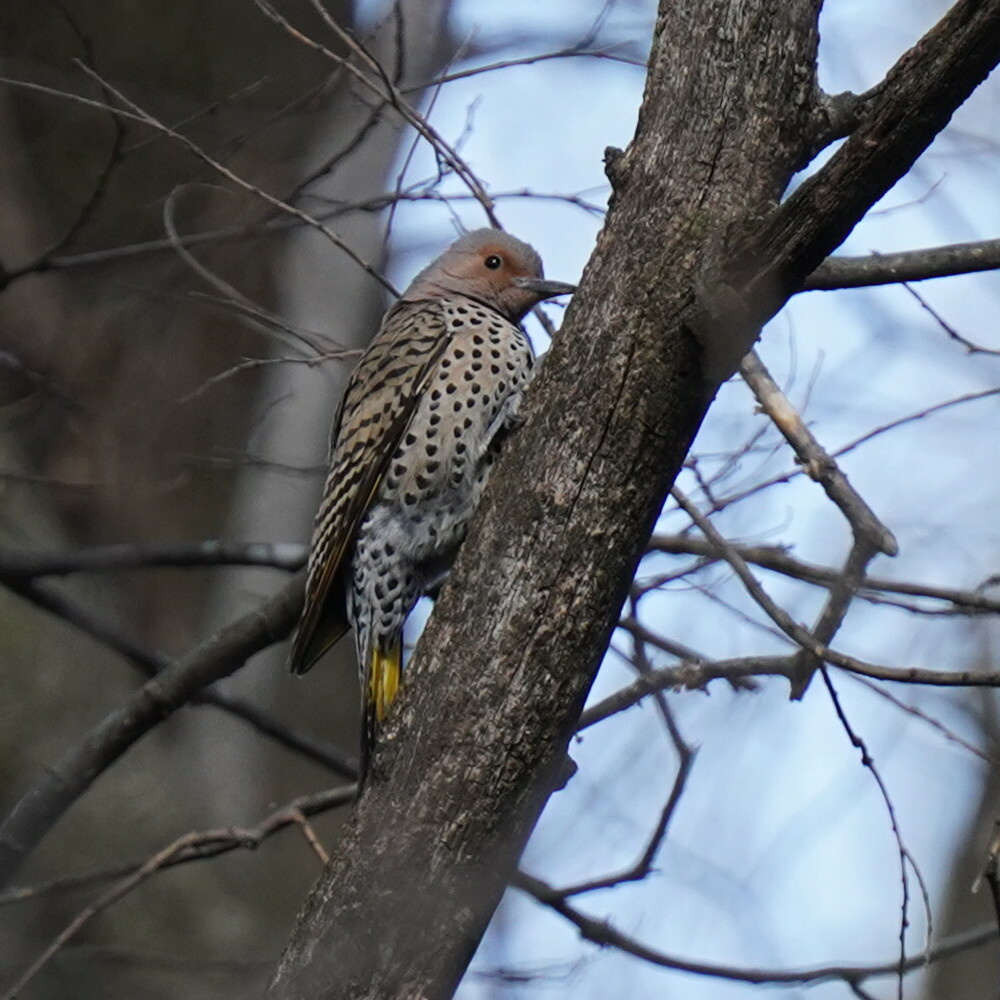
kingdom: Animalia
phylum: Chordata
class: Aves
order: Piciformes
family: Picidae
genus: Colaptes
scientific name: Colaptes auratus
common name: Northern flicker
